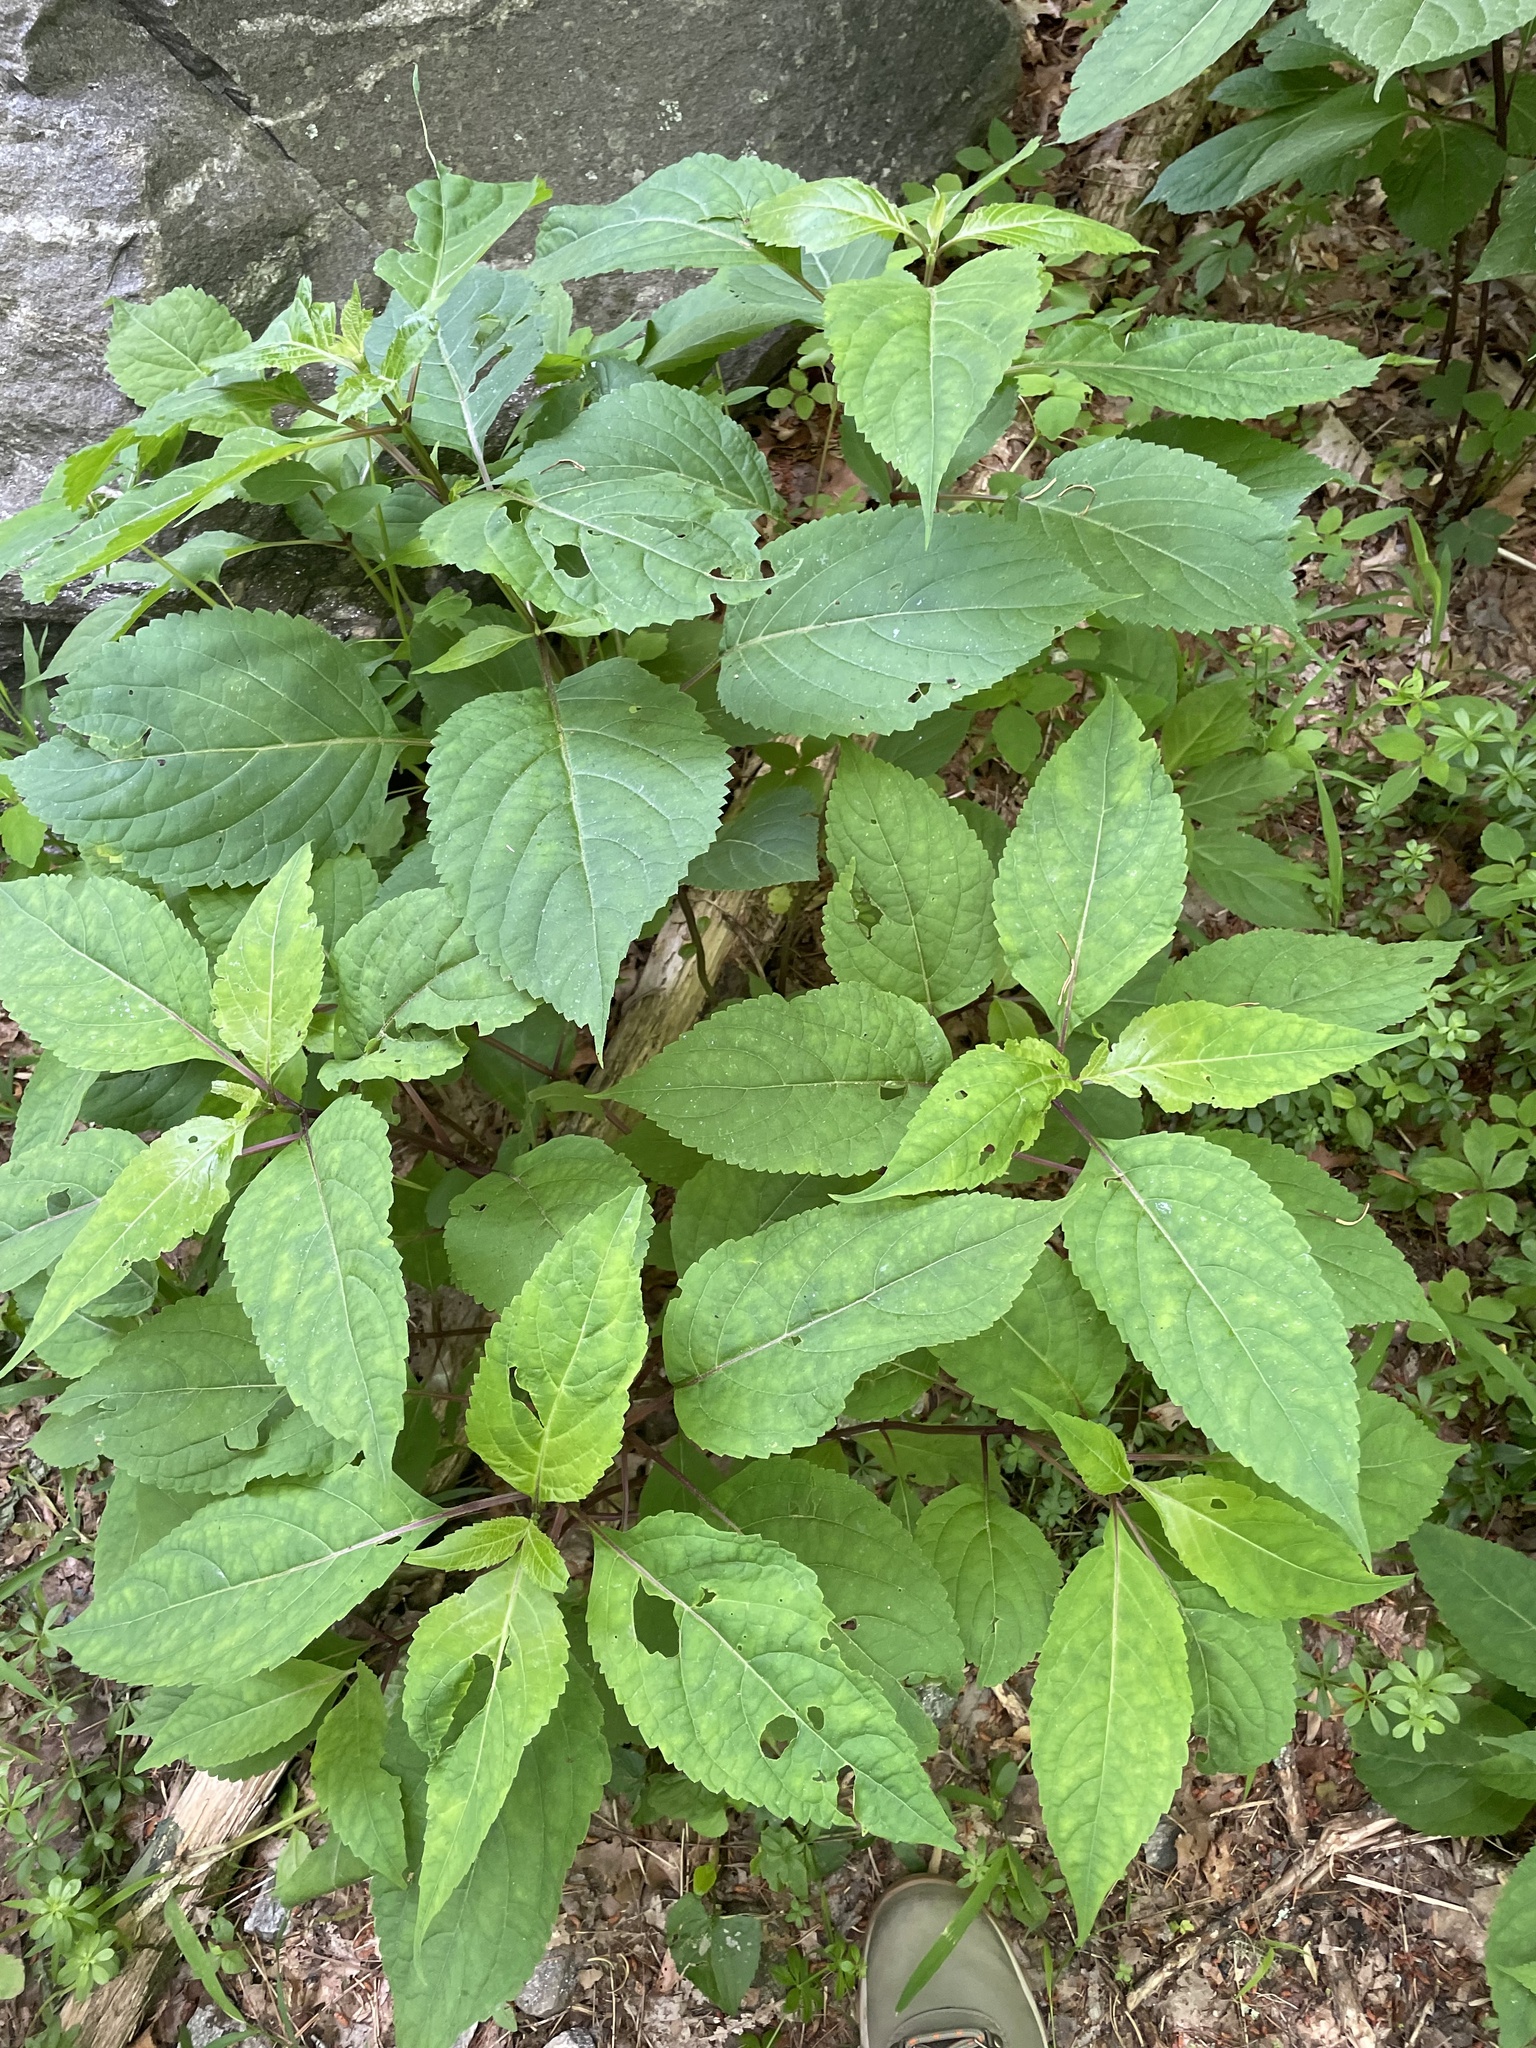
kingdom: Plantae
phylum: Tracheophyta
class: Magnoliopsida
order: Lamiales
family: Lamiaceae
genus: Collinsonia
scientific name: Collinsonia canadensis
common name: Northern horsebalm
